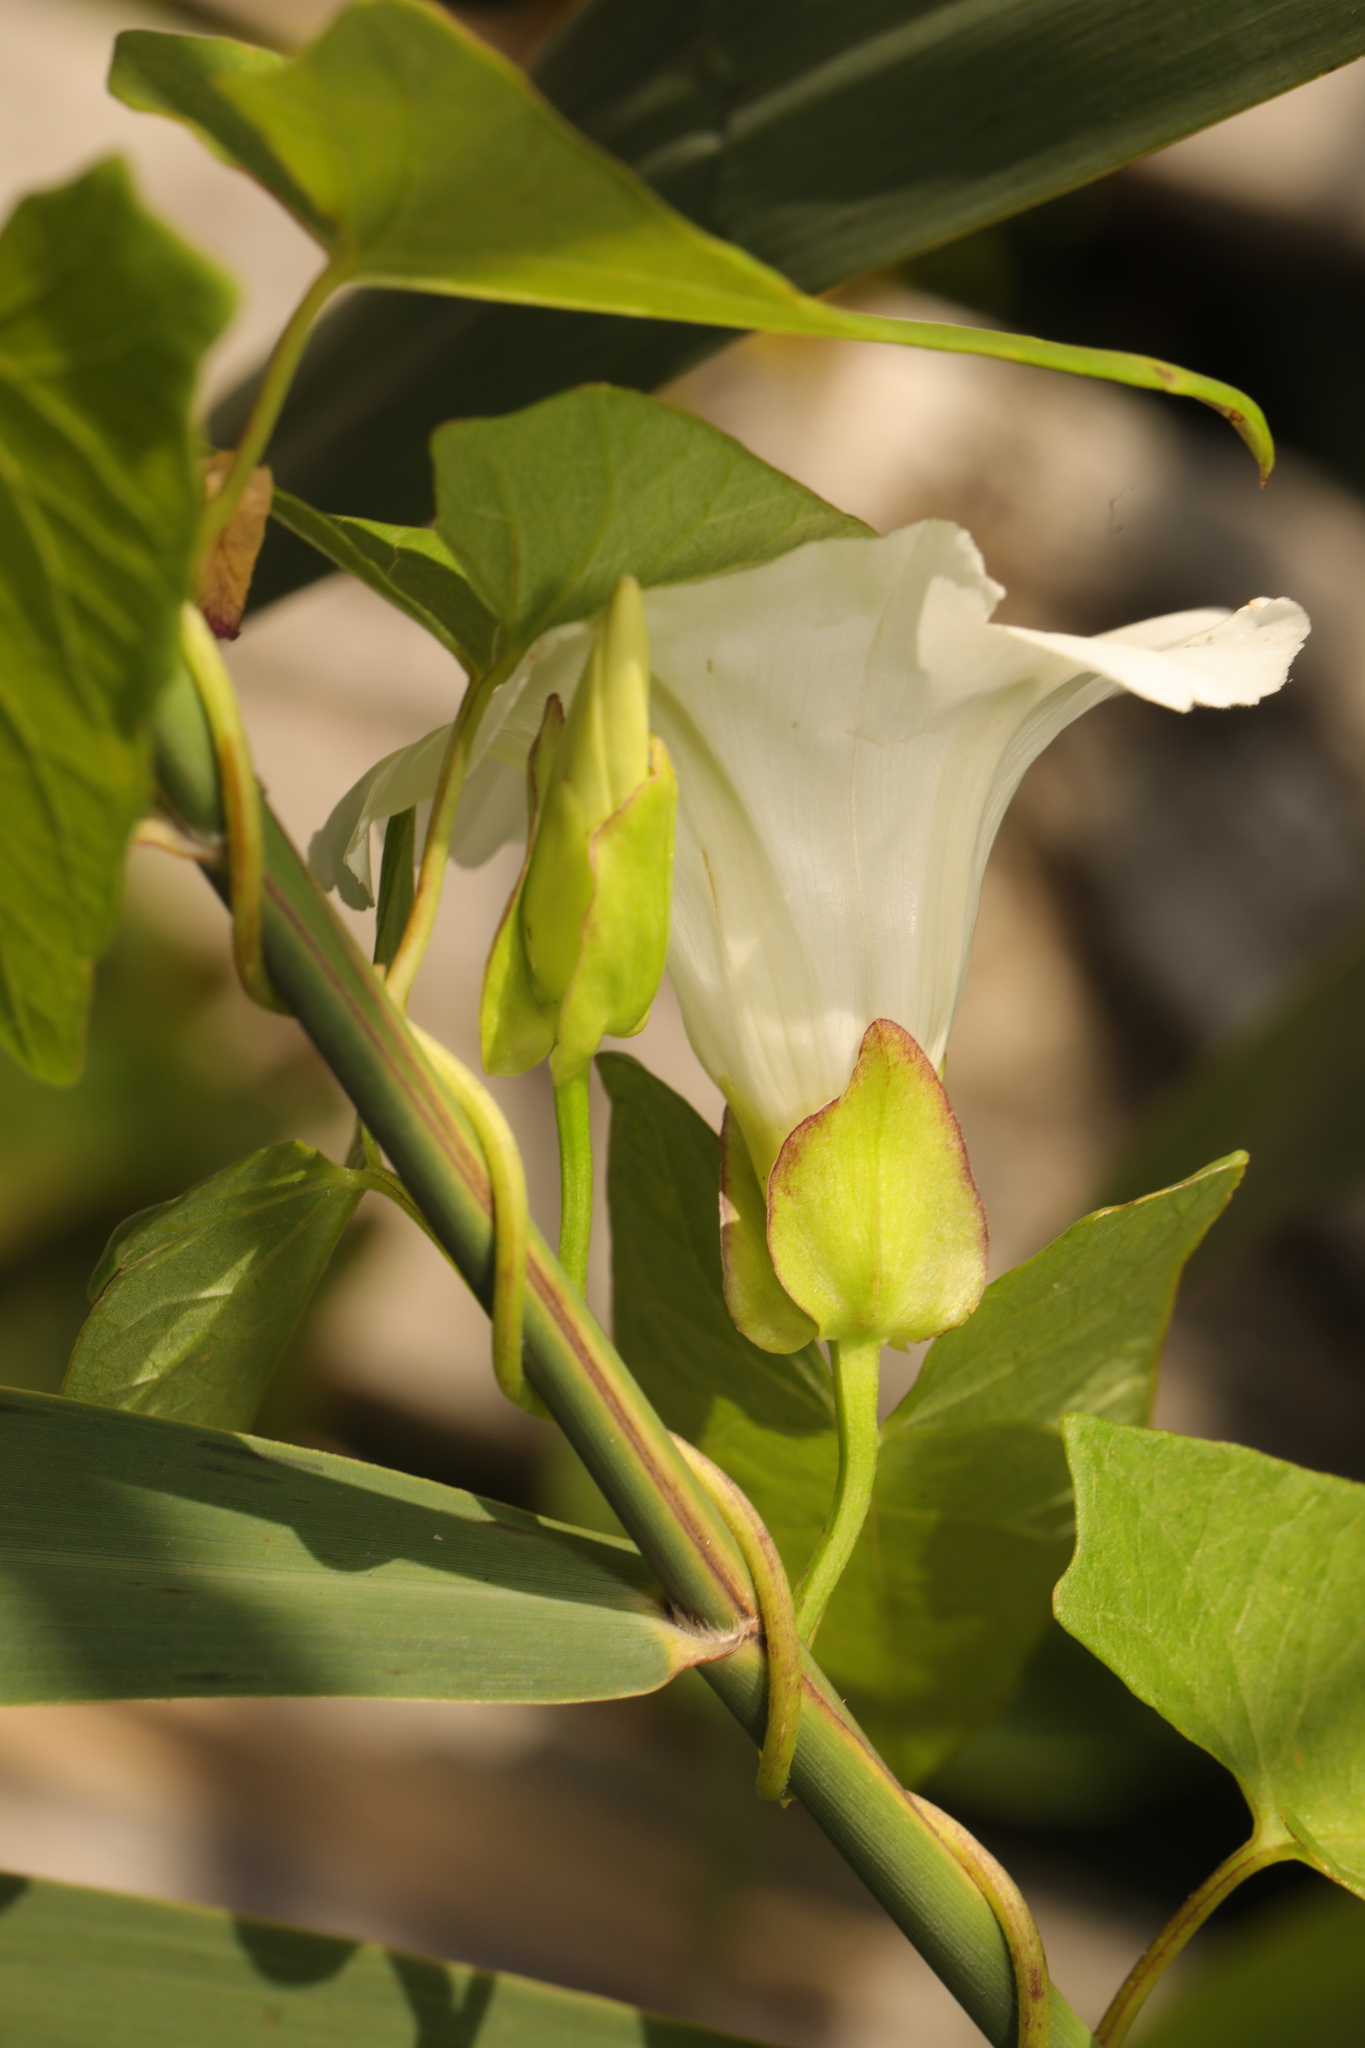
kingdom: Plantae
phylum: Tracheophyta
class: Magnoliopsida
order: Solanales
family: Convolvulaceae
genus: Calystegia
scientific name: Calystegia sepium
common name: Hedge bindweed
